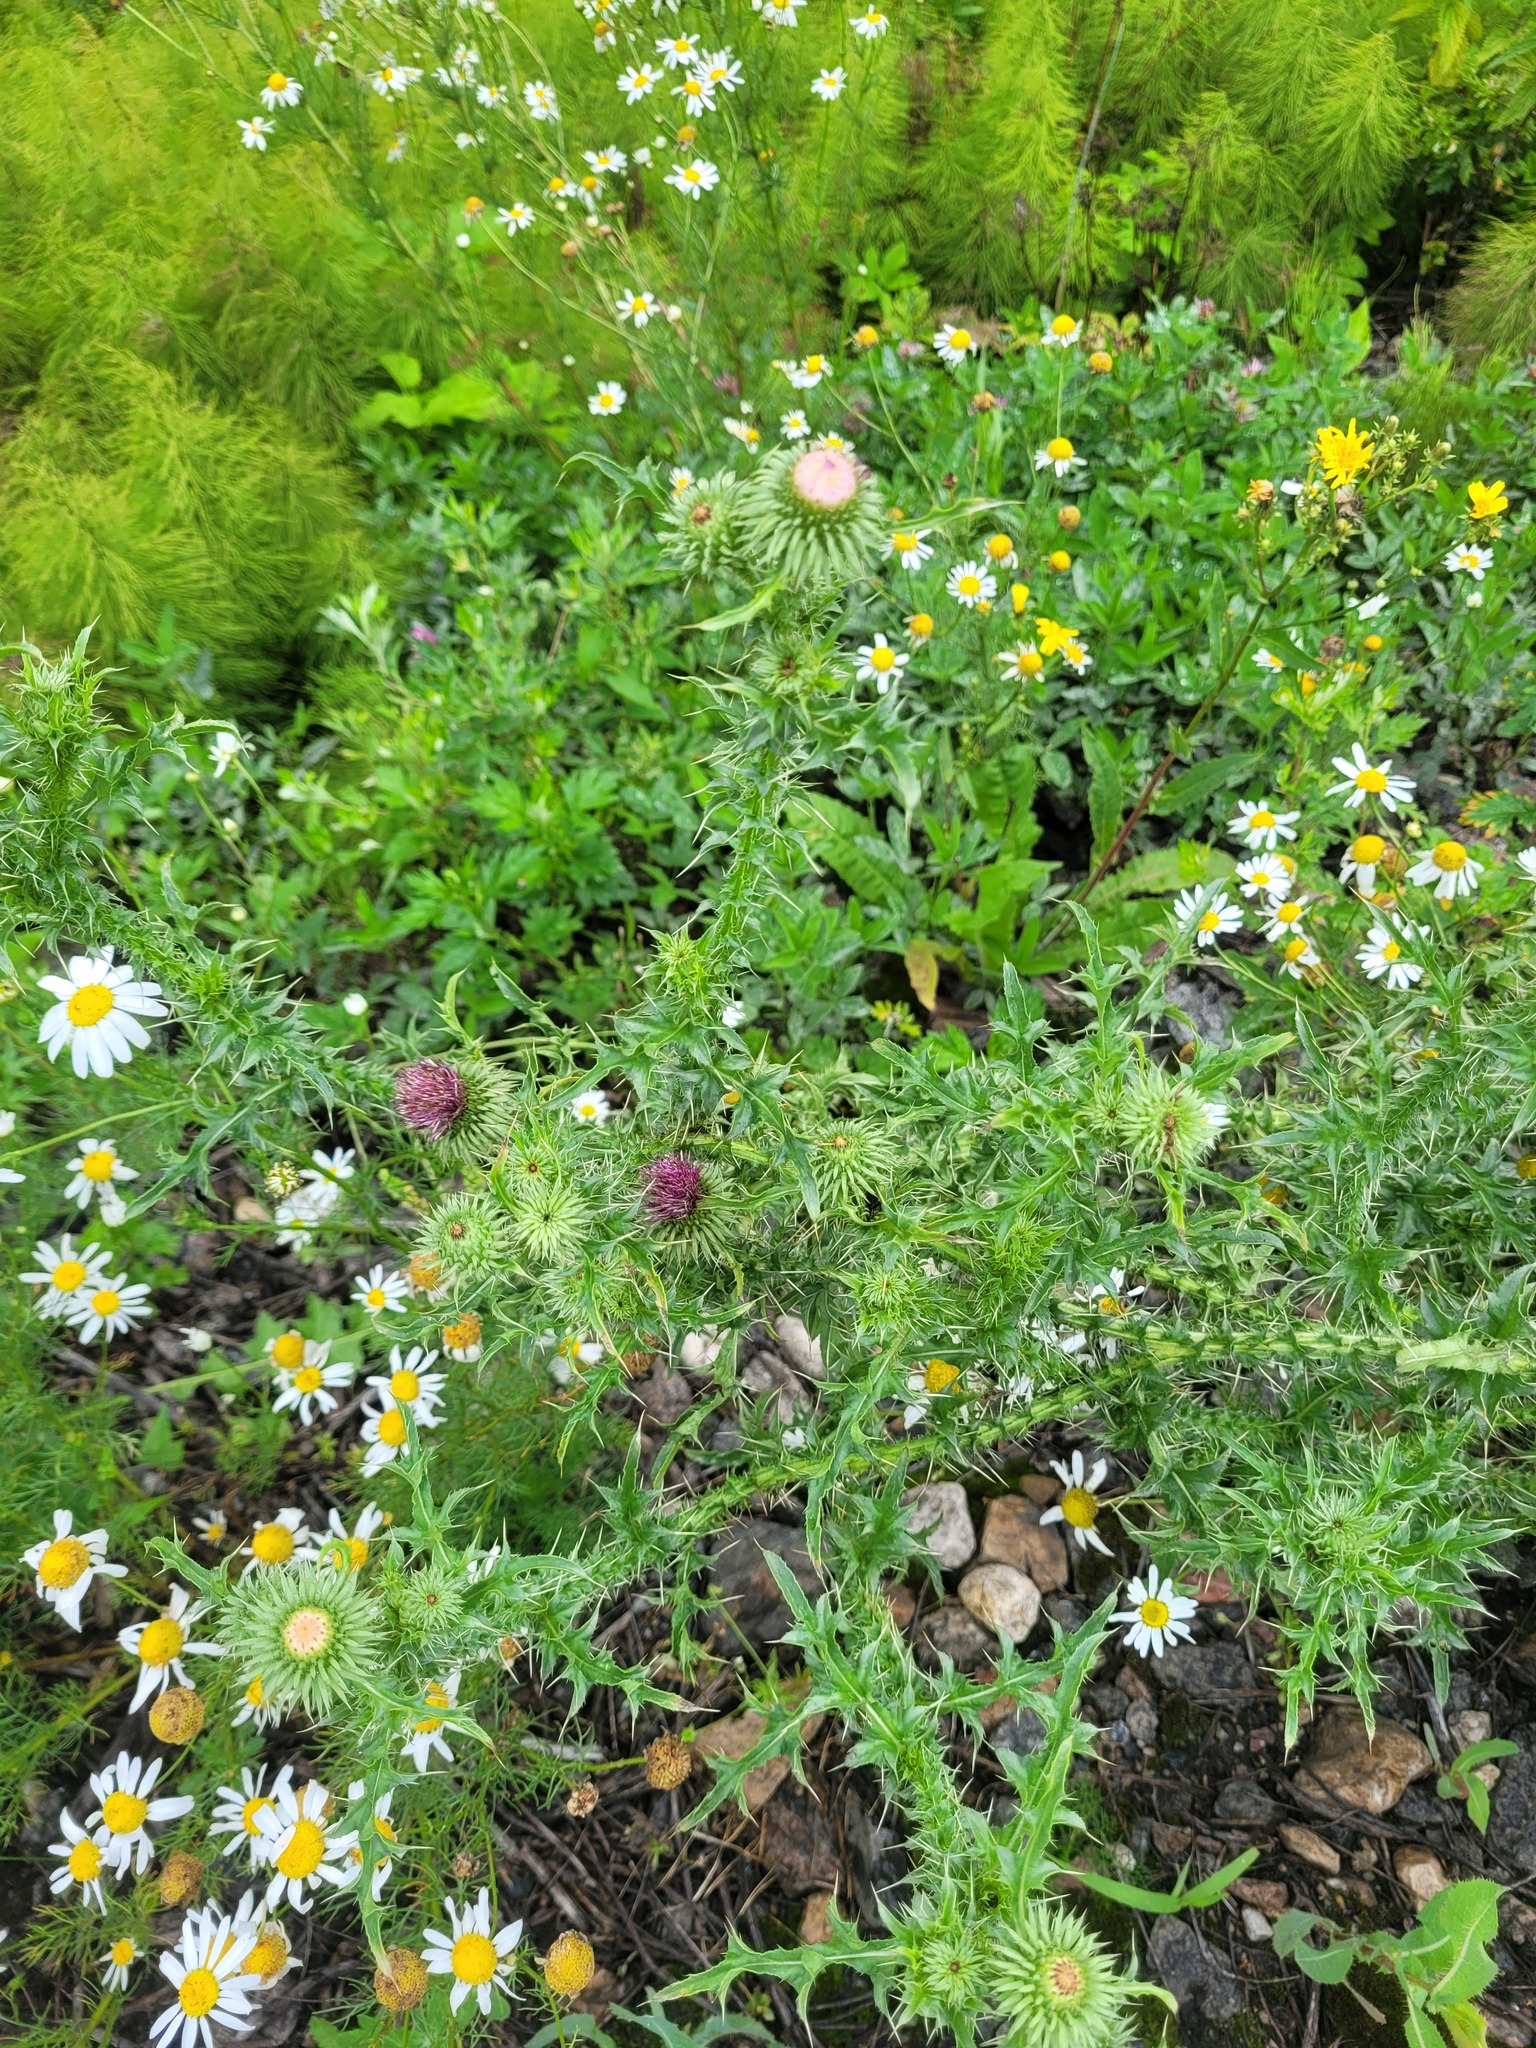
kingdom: Plantae
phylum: Tracheophyta
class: Magnoliopsida
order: Asterales
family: Asteraceae
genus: Carduus
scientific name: Carduus acanthoides
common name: Plumeless thistle
